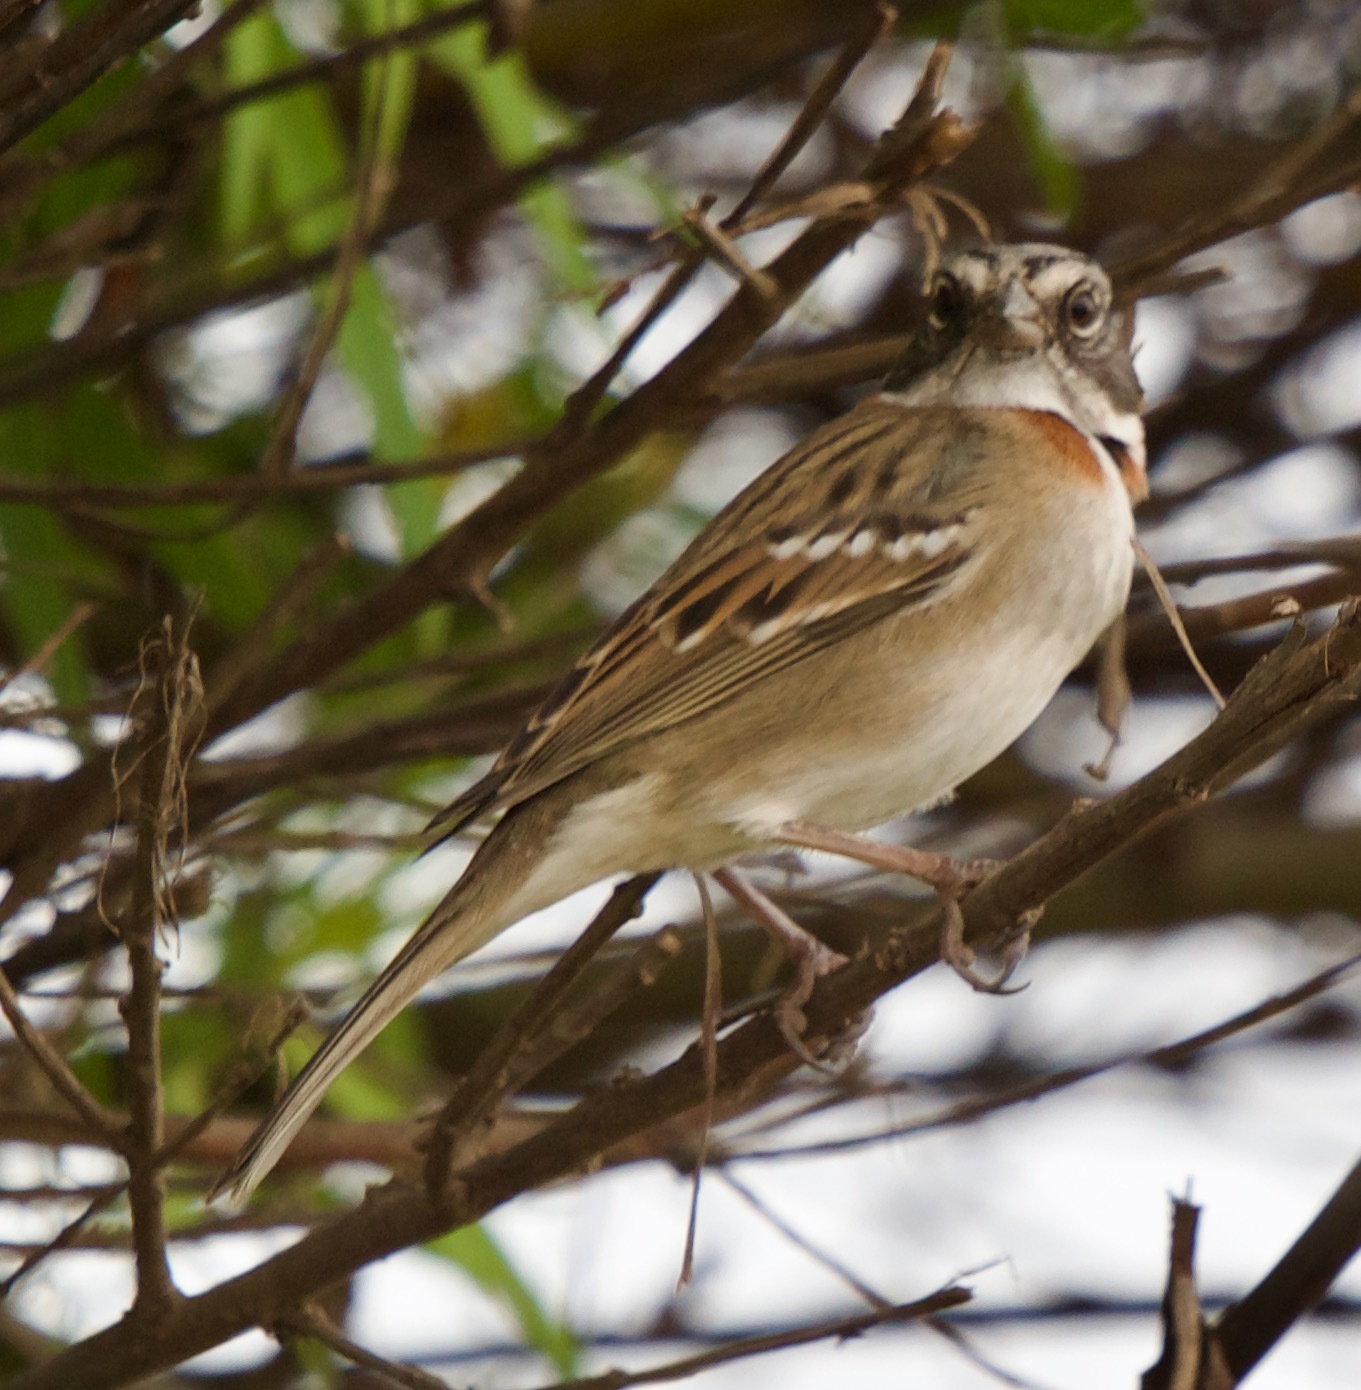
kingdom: Animalia
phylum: Chordata
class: Aves
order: Passeriformes
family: Passerellidae
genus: Zonotrichia
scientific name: Zonotrichia capensis
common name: Rufous-collared sparrow
